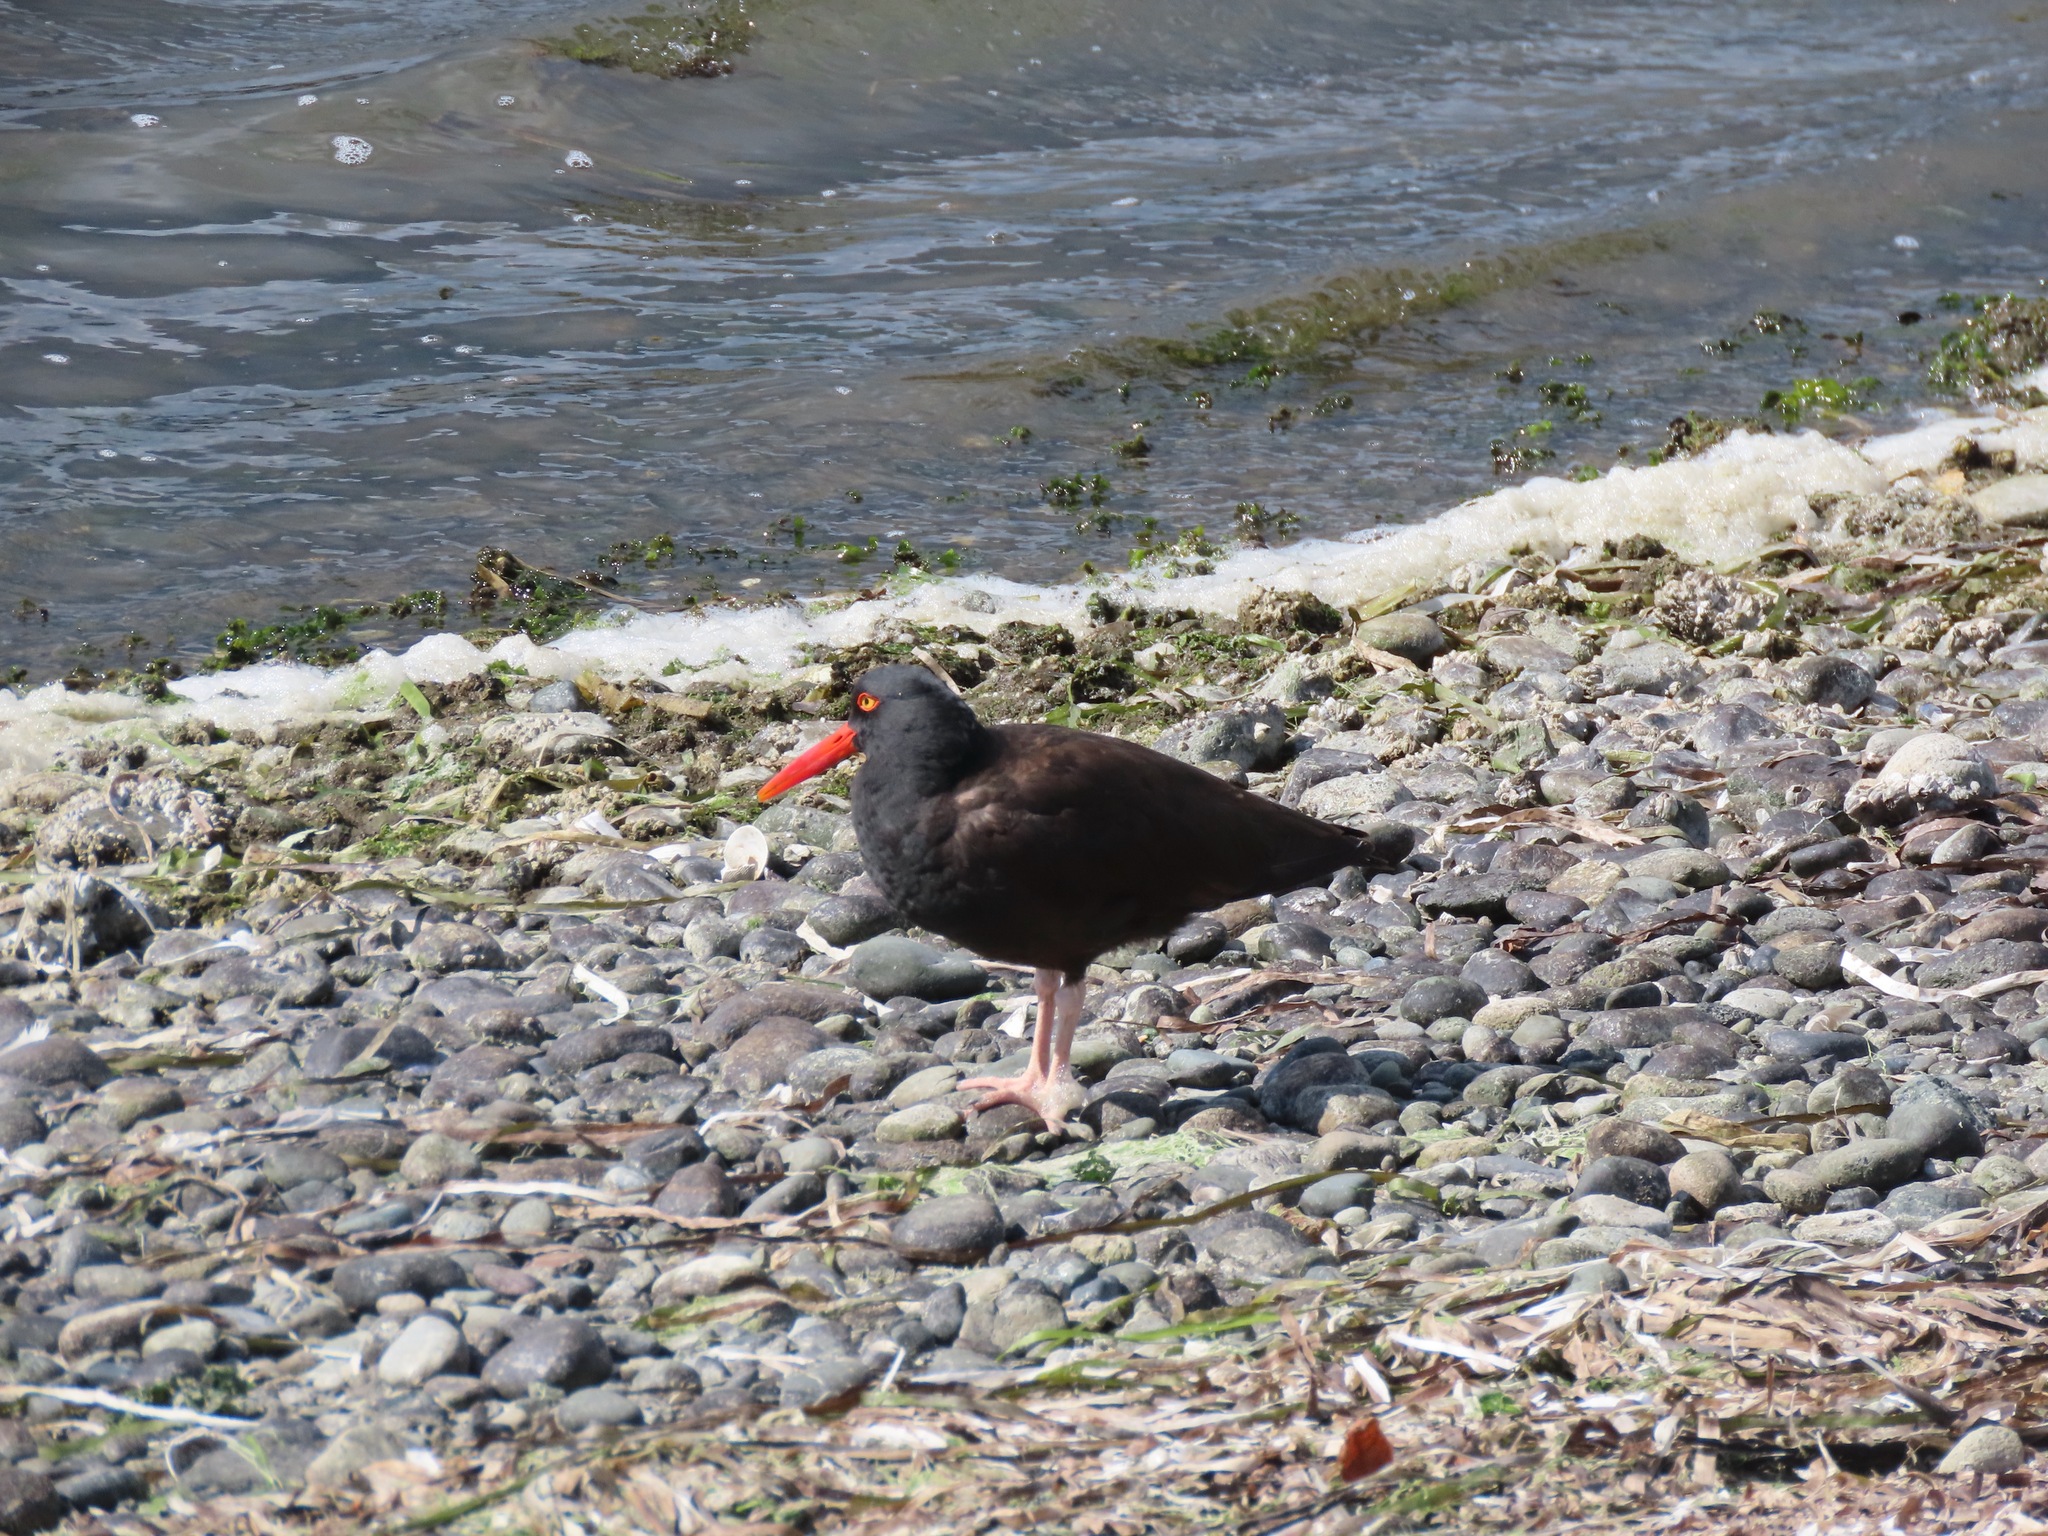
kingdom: Animalia
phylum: Chordata
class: Aves
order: Charadriiformes
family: Haematopodidae
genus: Haematopus
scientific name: Haematopus bachmani
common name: Black oystercatcher
